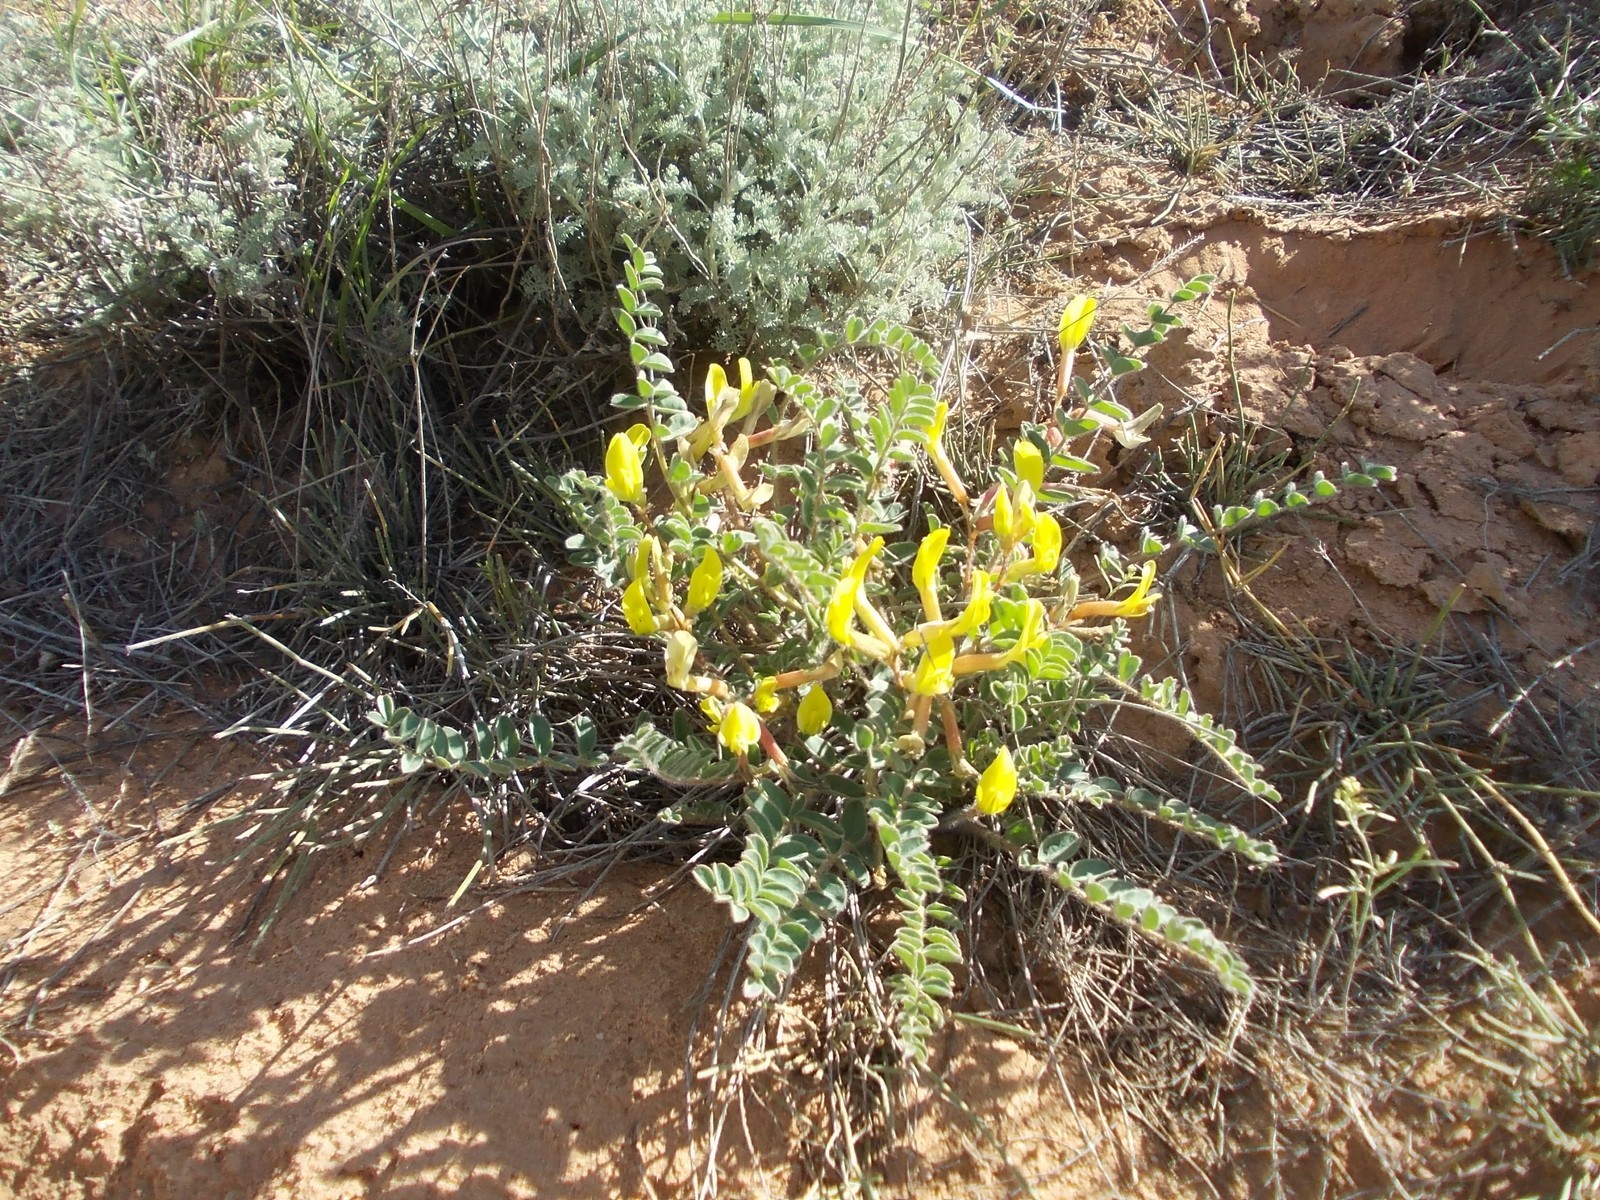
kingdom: Plantae
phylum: Tracheophyta
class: Magnoliopsida
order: Fabales
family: Fabaceae
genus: Astragalus
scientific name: Astragalus longipetalus
